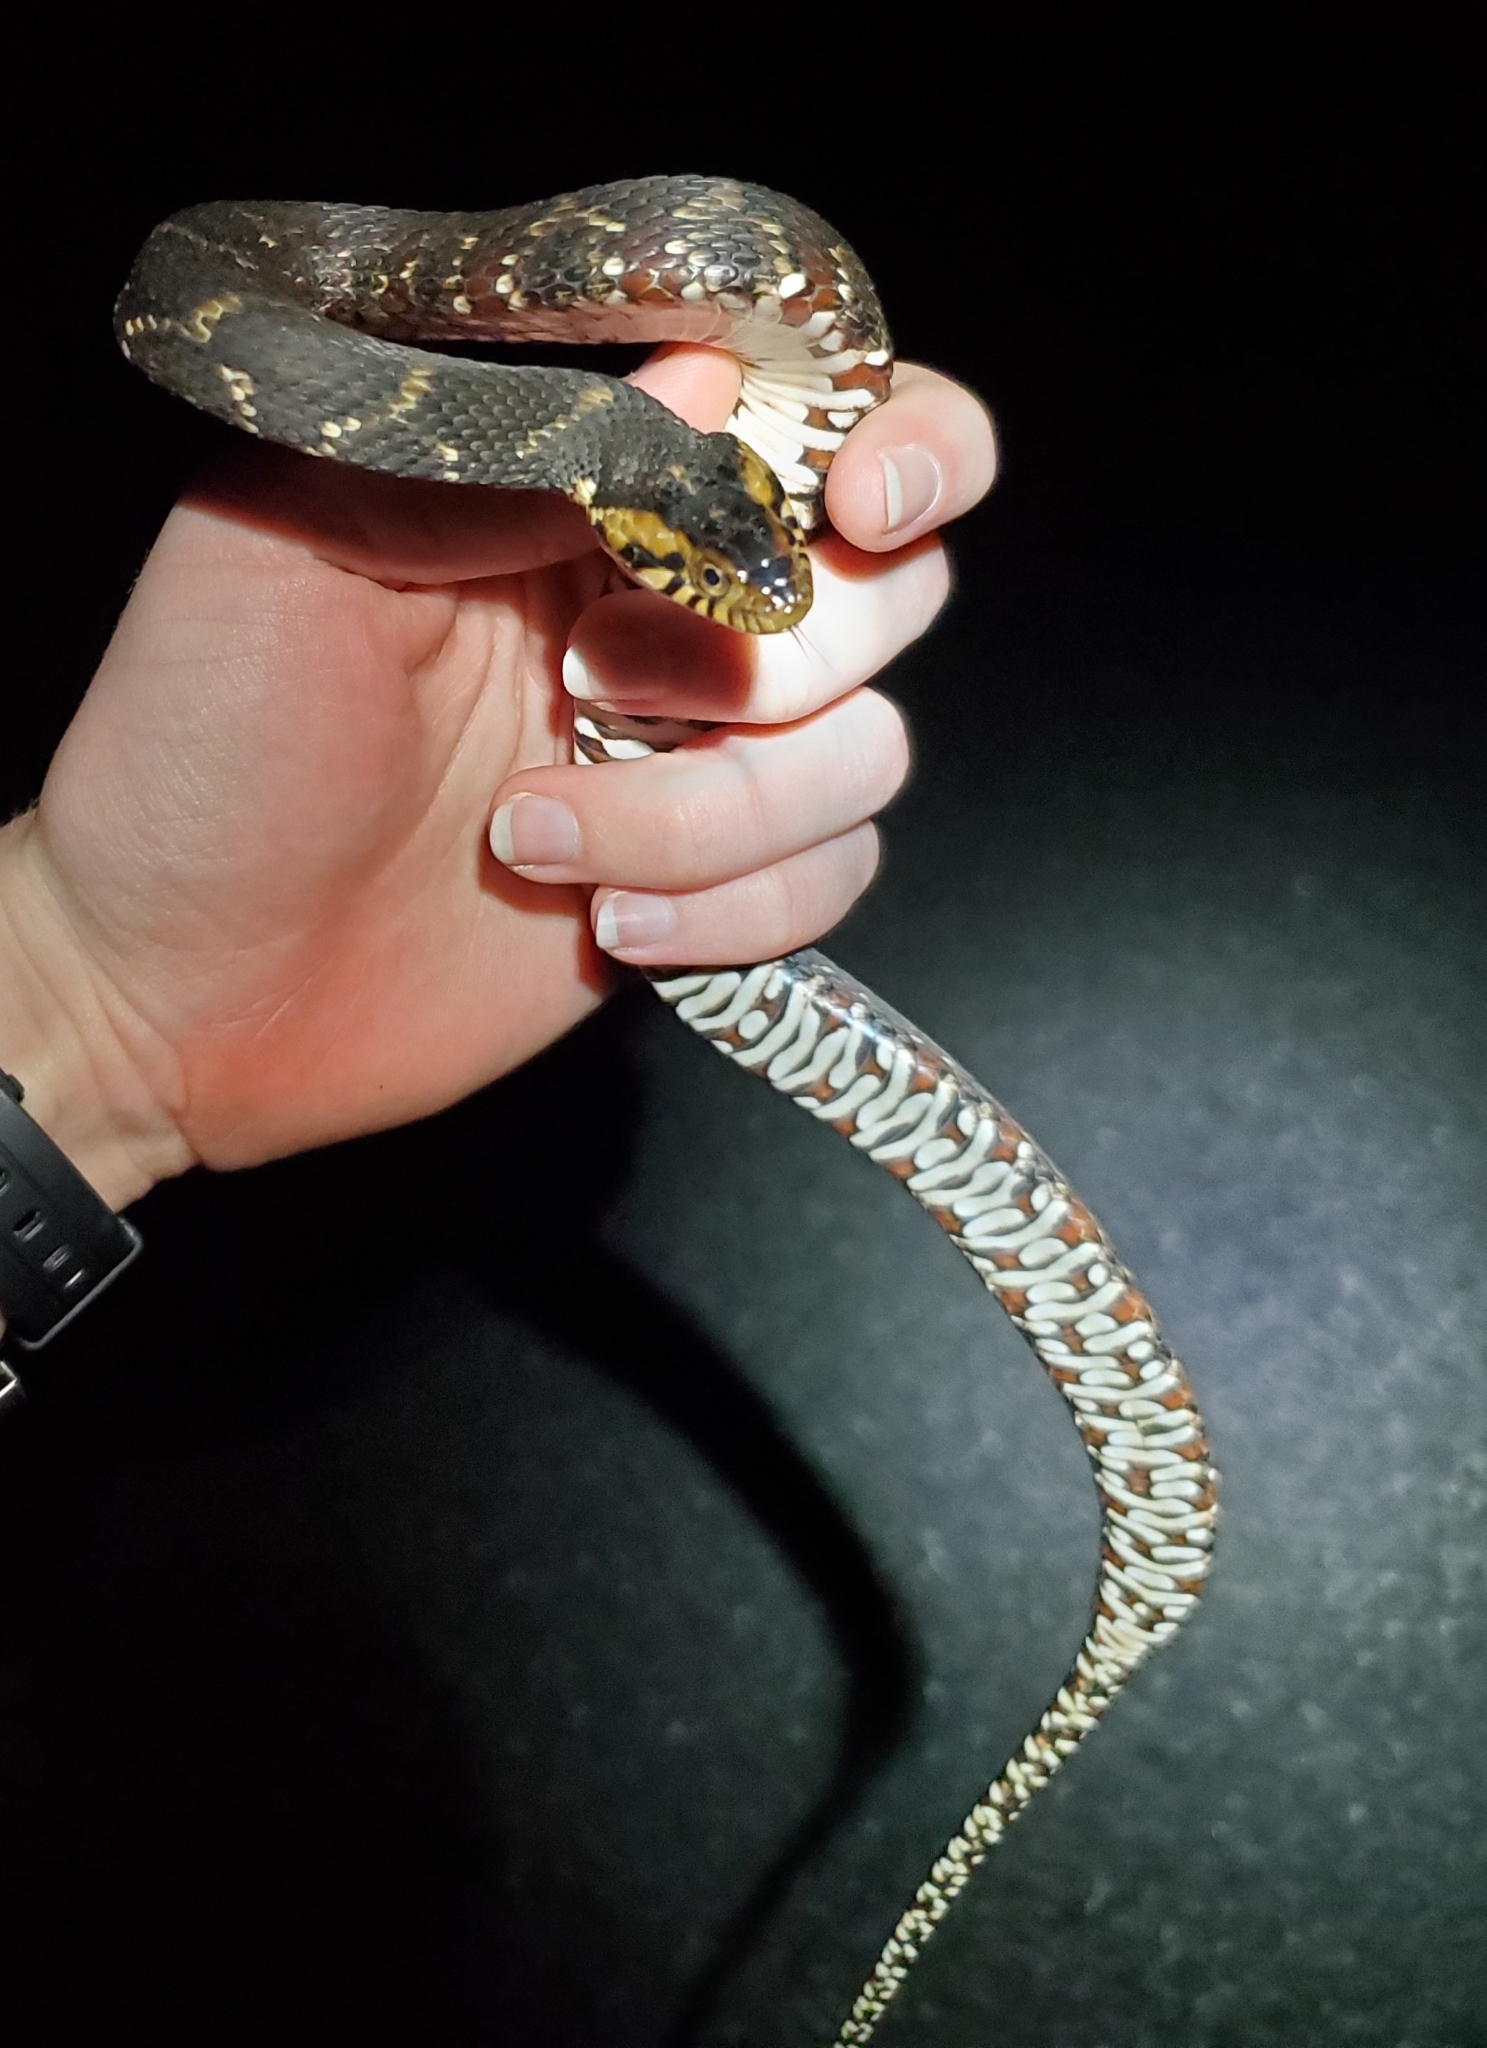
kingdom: Animalia
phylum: Chordata
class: Squamata
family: Colubridae
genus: Nerodia
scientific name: Nerodia fasciata
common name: Southern water snake
